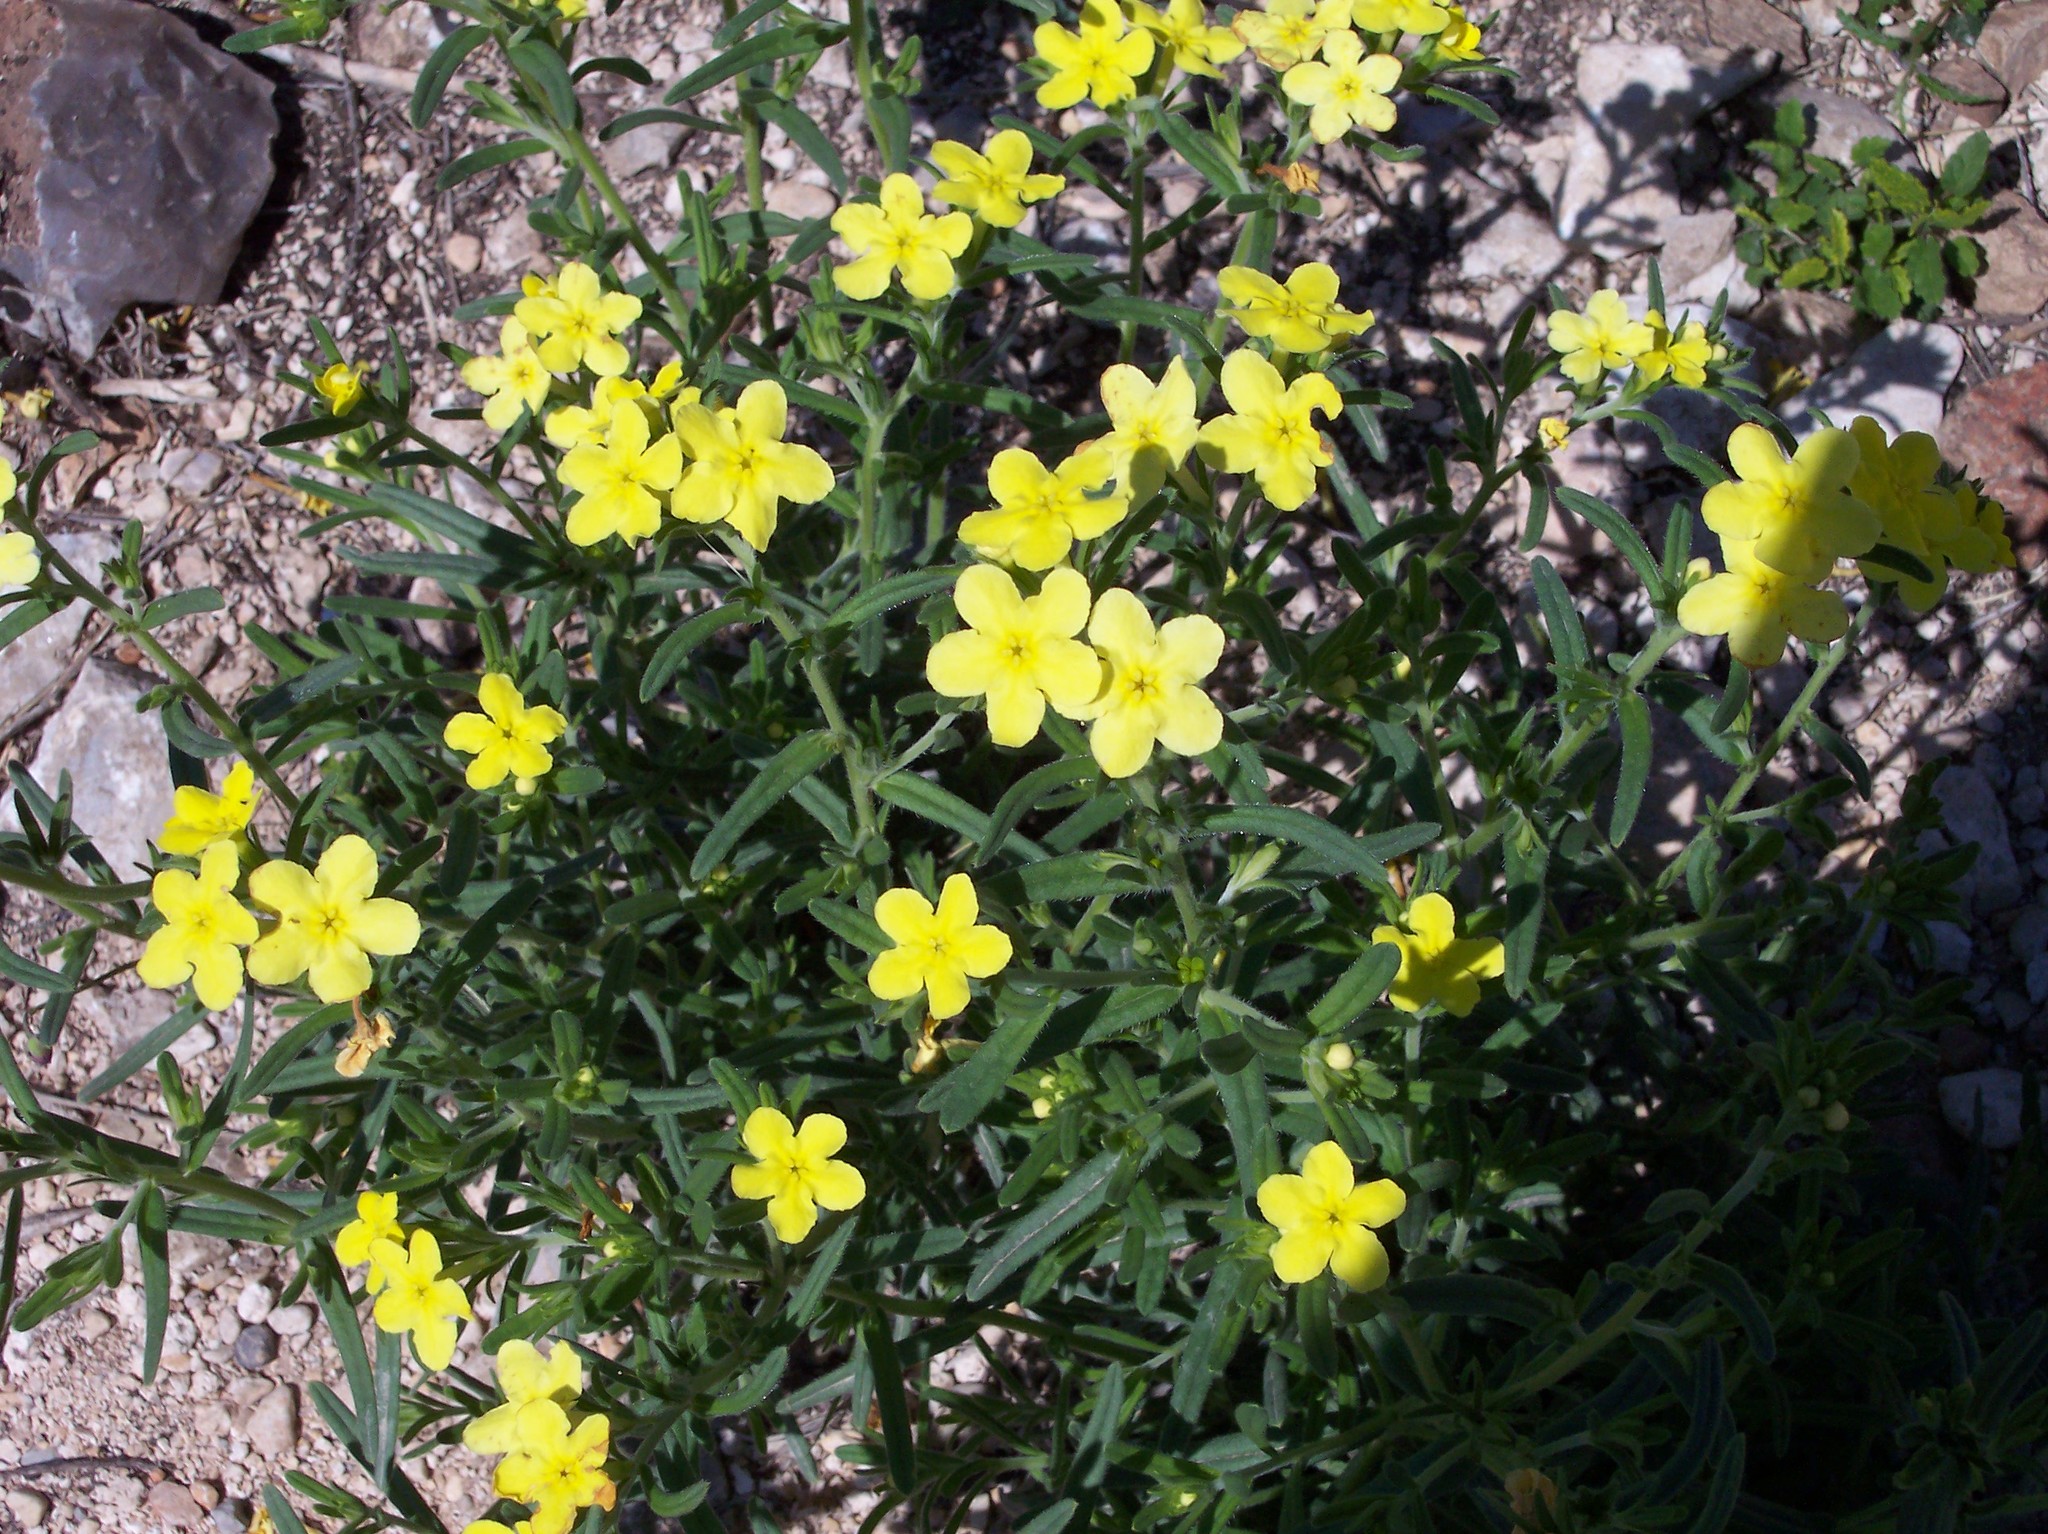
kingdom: Plantae
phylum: Tracheophyta
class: Magnoliopsida
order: Boraginales
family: Boraginaceae
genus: Lithospermum
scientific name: Lithospermum mirabile
